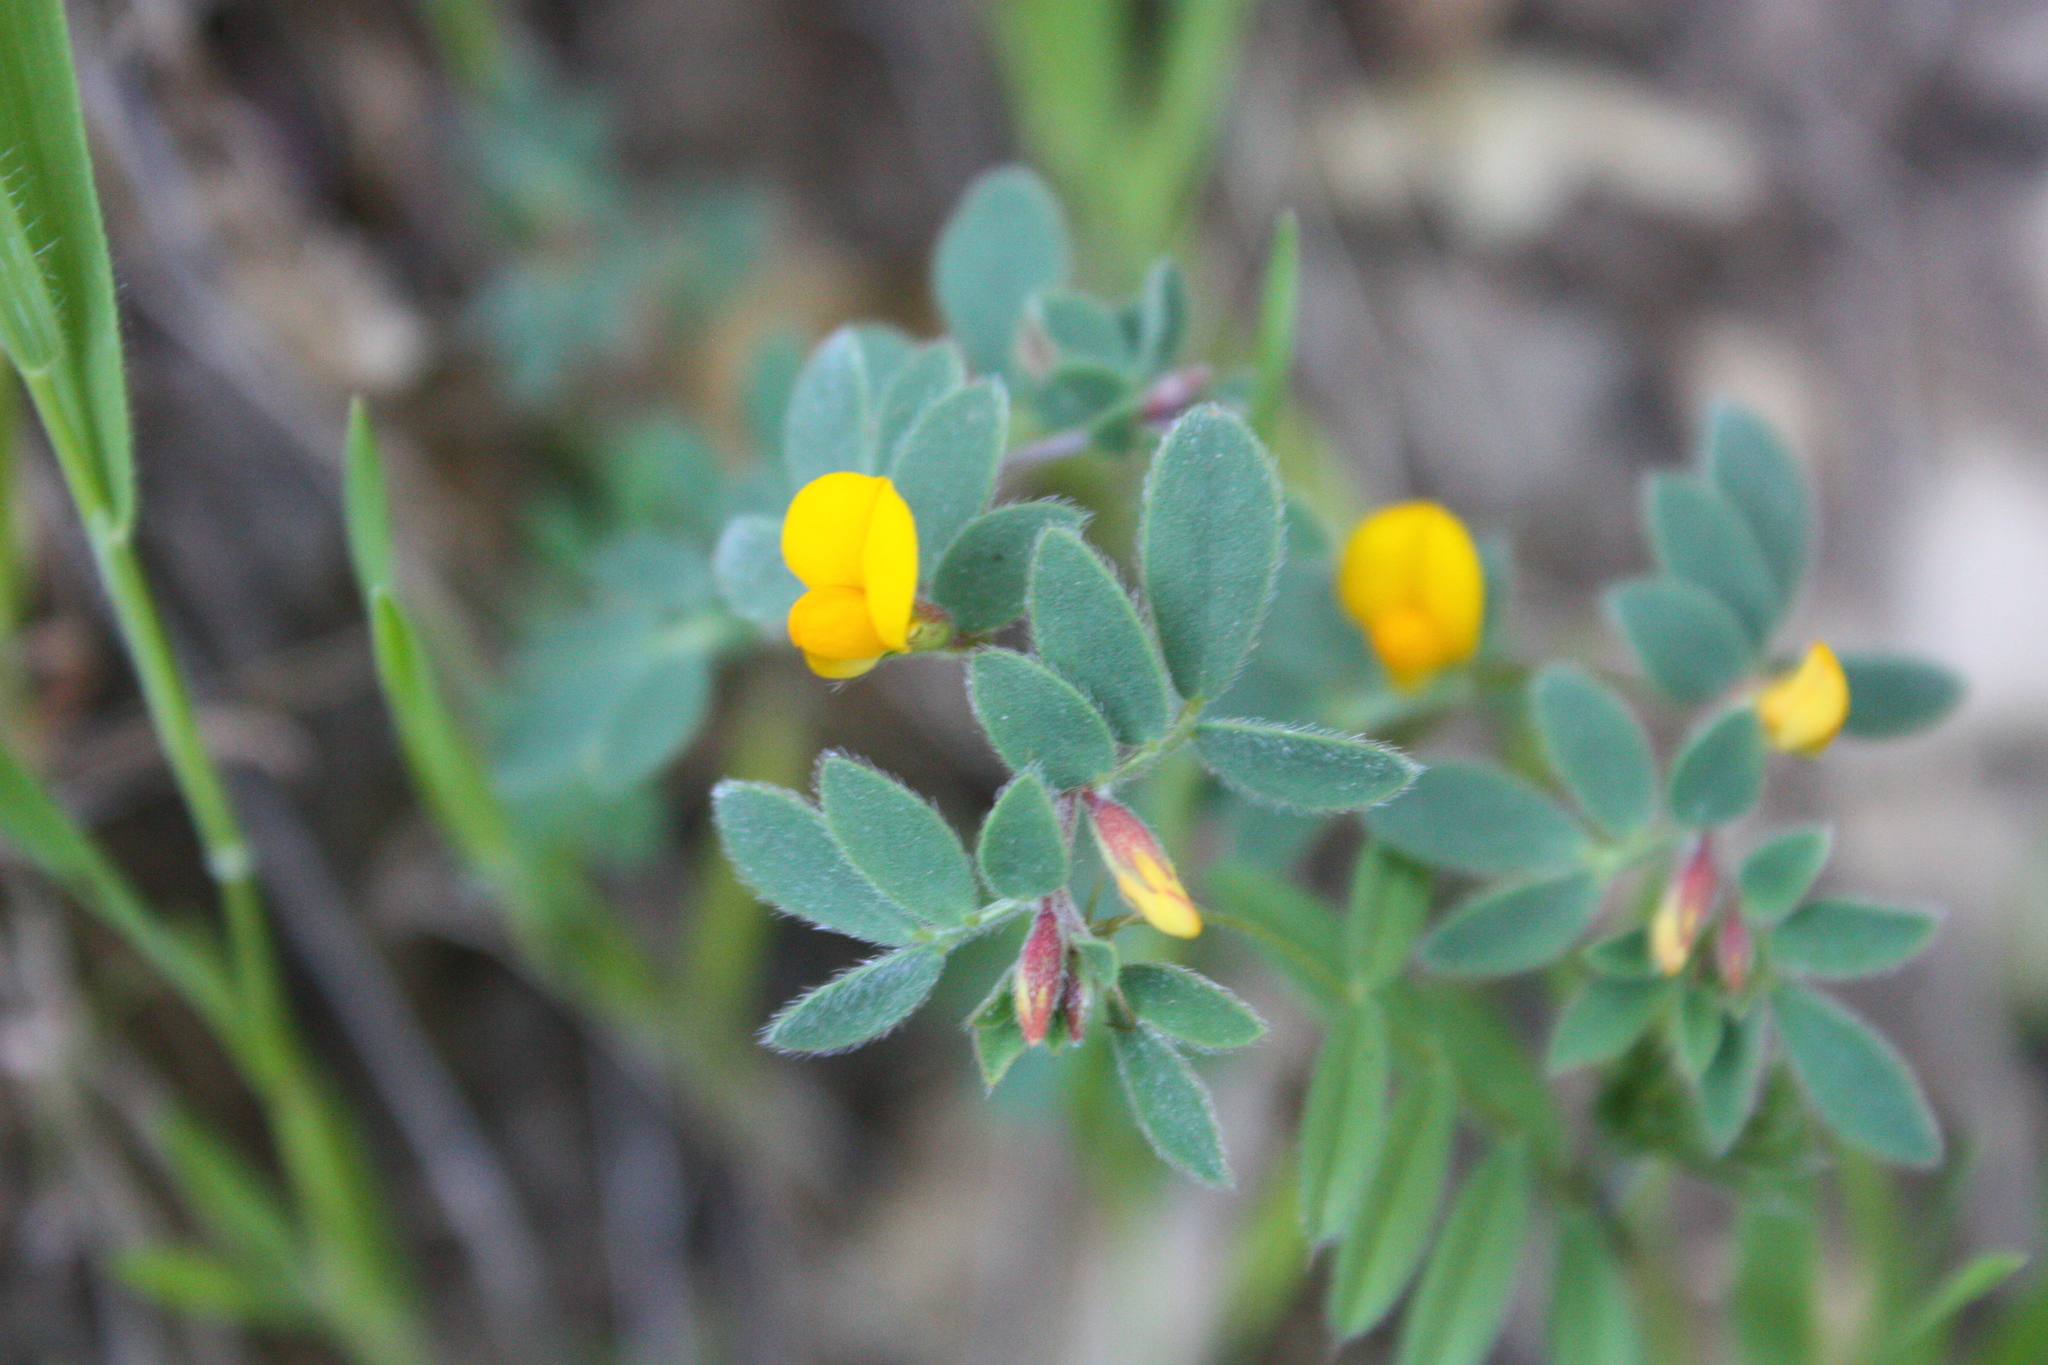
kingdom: Plantae
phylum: Tracheophyta
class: Magnoliopsida
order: Fabales
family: Fabaceae
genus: Acmispon
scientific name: Acmispon wrangelianus
